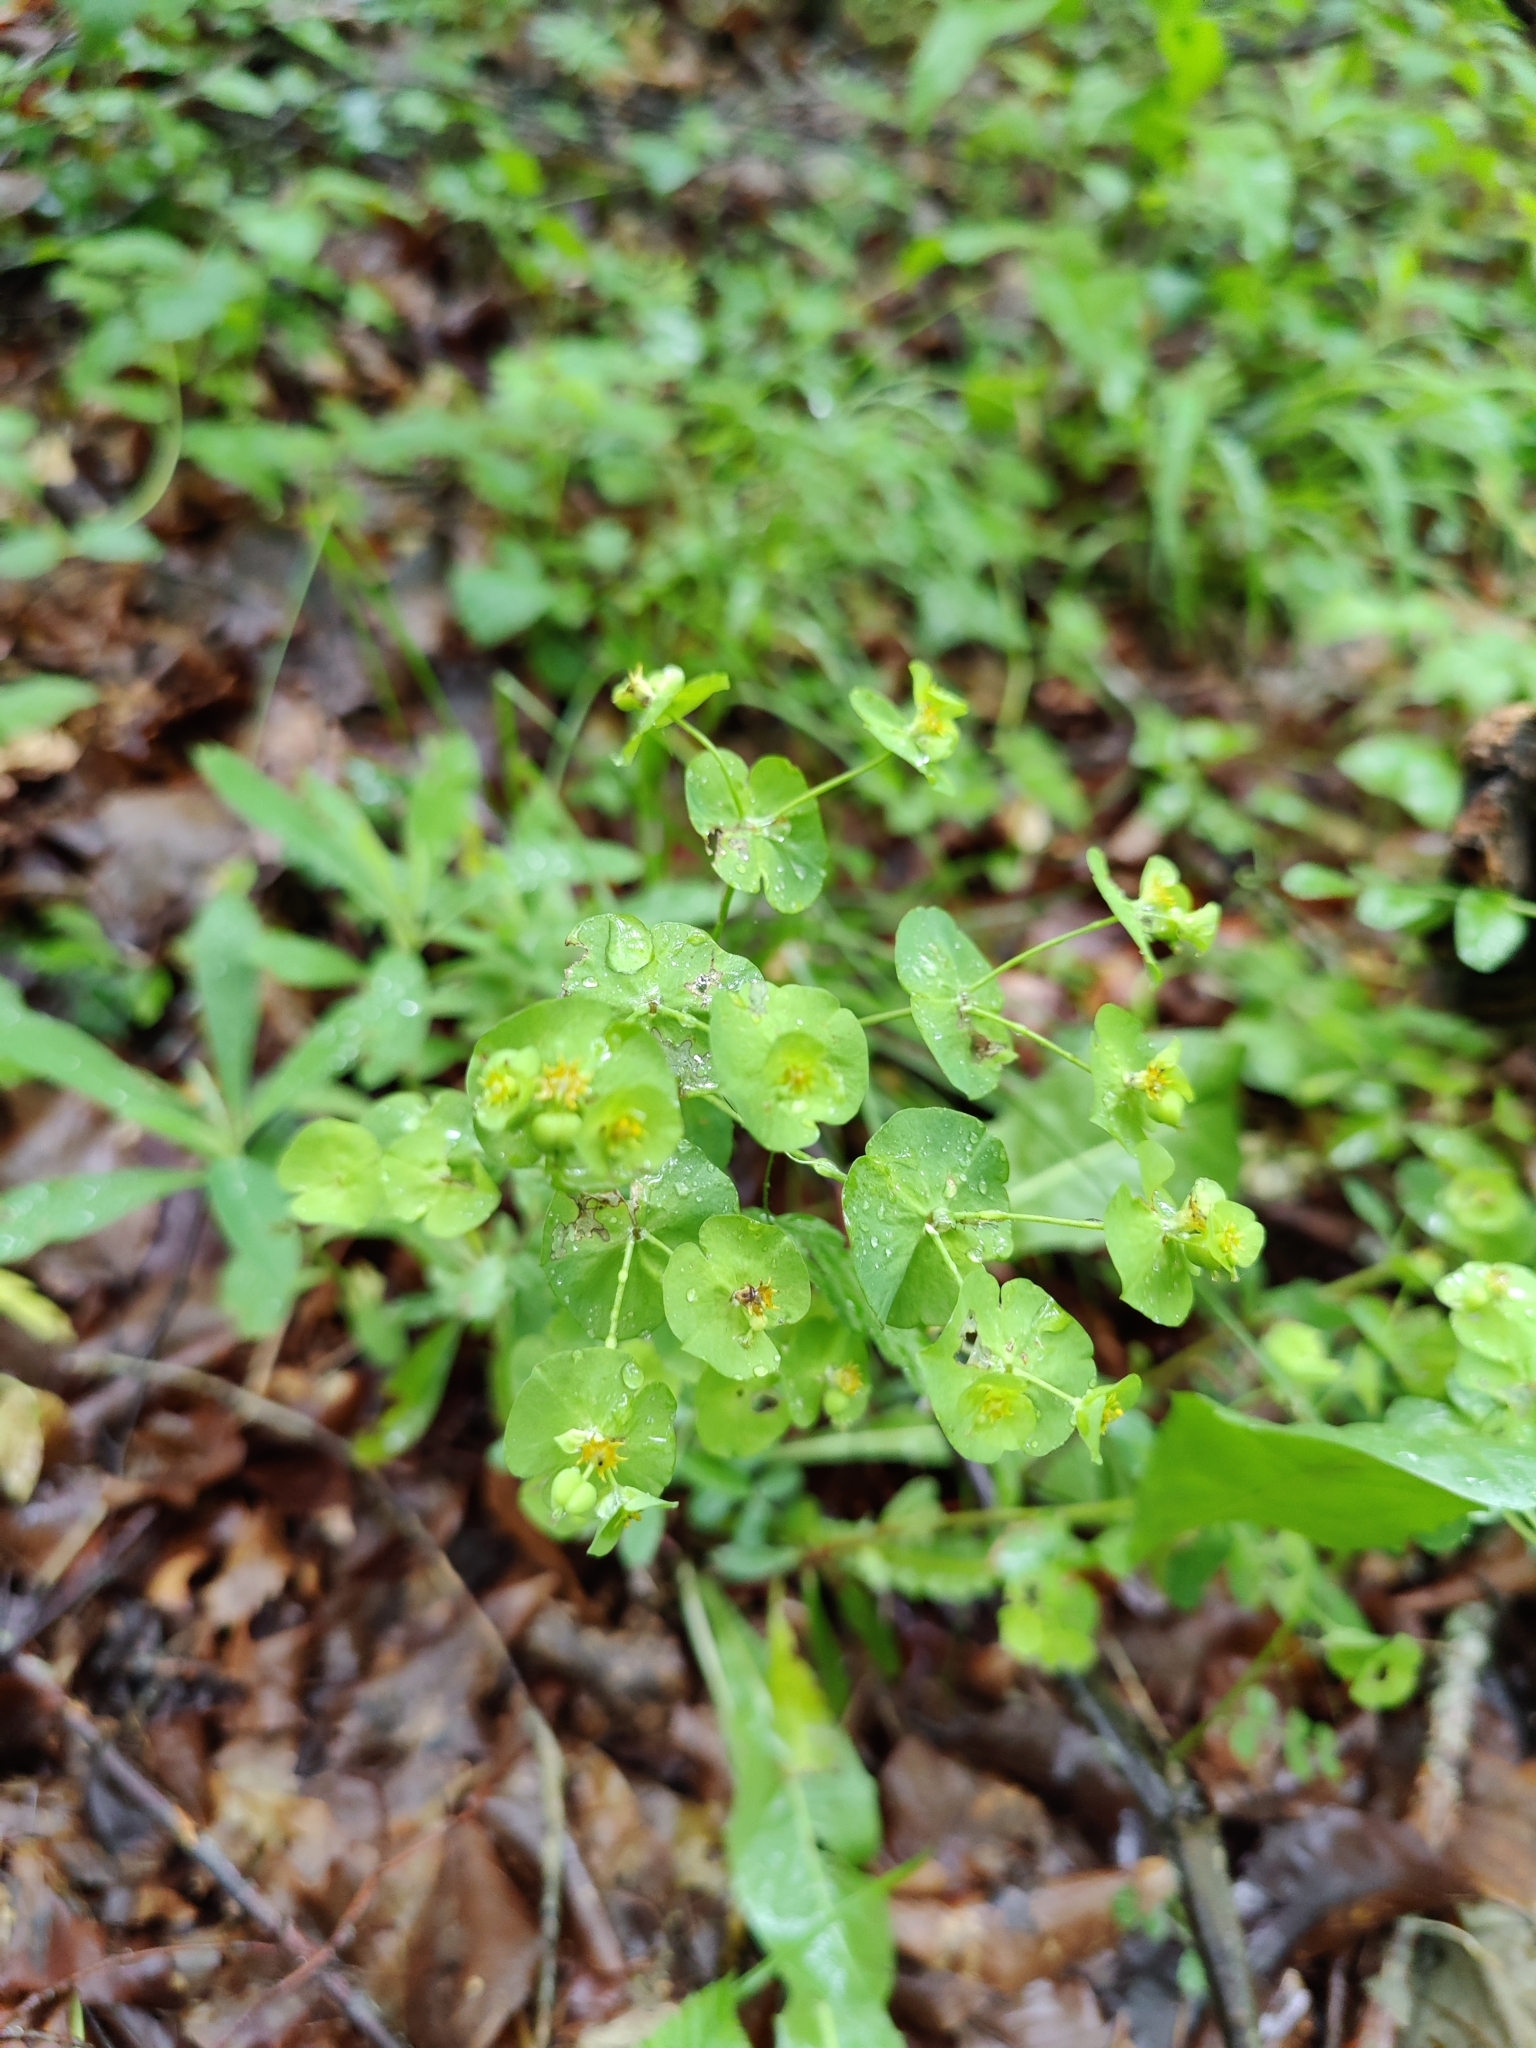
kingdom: Plantae
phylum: Tracheophyta
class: Magnoliopsida
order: Malpighiales
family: Euphorbiaceae
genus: Euphorbia
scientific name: Euphorbia amygdaloides
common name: Wood spurge
